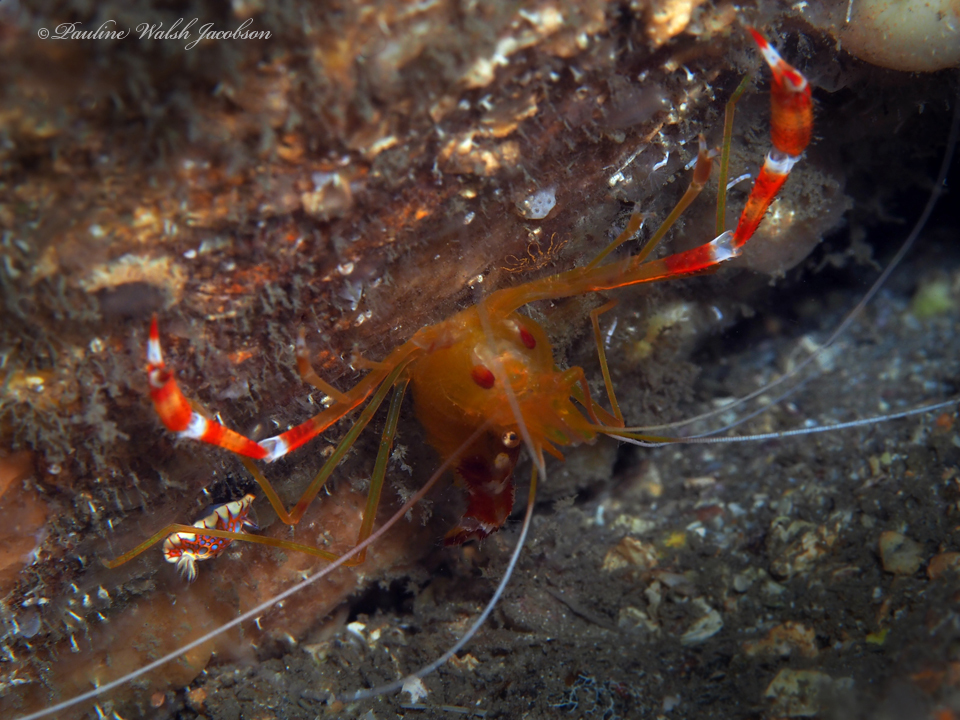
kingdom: Animalia
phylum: Arthropoda
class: Malacostraca
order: Decapoda
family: Stenopodidae
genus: Stenopus
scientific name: Stenopus scutellatus
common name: Golden coral shrimp
